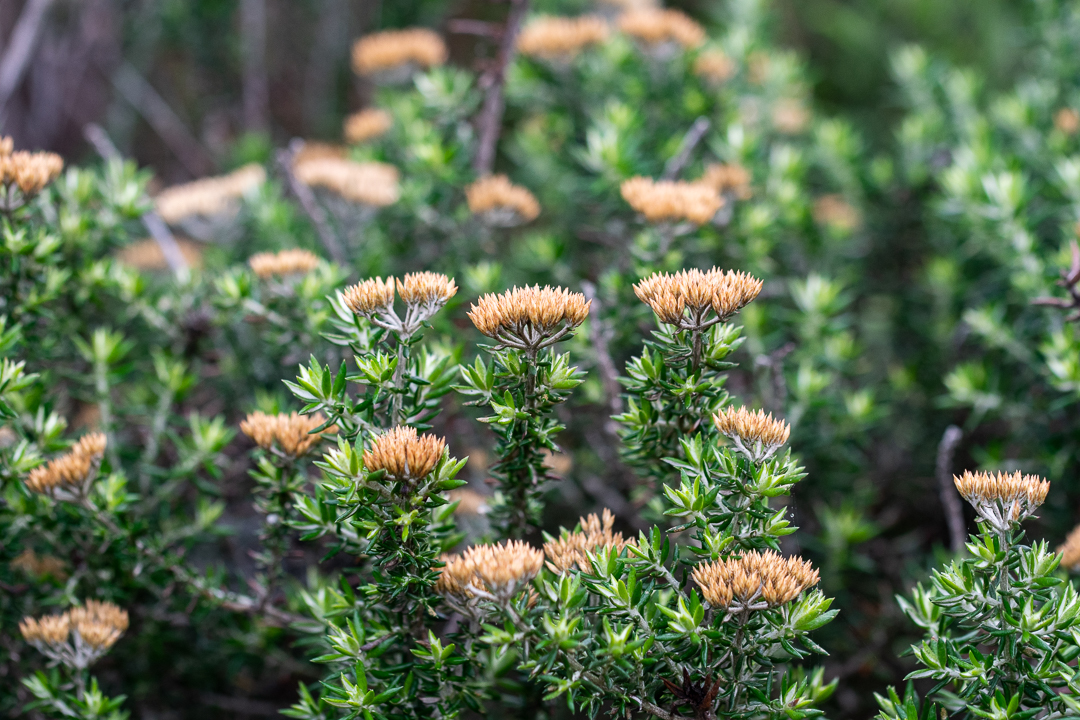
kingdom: Plantae
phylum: Tracheophyta
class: Magnoliopsida
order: Asterales
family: Asteraceae
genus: Metalasia
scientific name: Metalasia muricata
